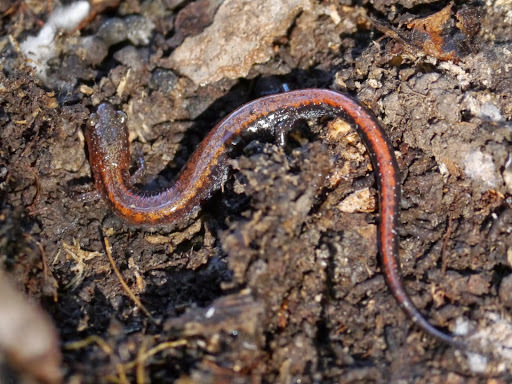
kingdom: Animalia
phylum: Chordata
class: Amphibia
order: Caudata
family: Plethodontidae
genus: Plethodon
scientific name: Plethodon cinereus
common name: Redback salamander
